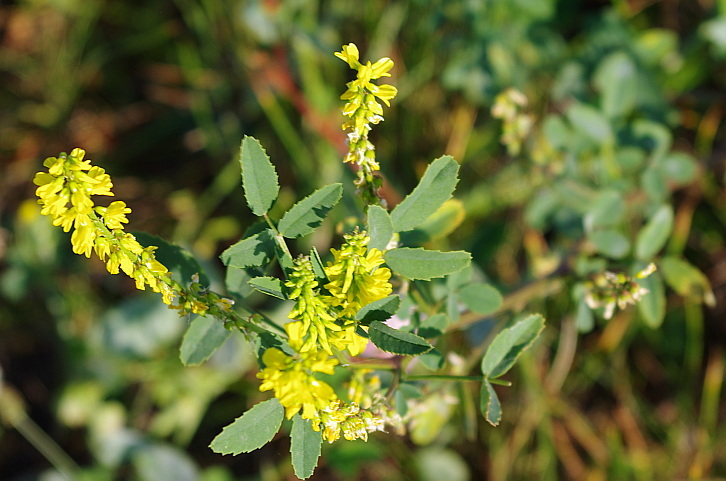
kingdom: Plantae
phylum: Tracheophyta
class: Magnoliopsida
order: Fabales
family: Fabaceae
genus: Melilotus
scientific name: Melilotus officinalis
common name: Sweetclover
